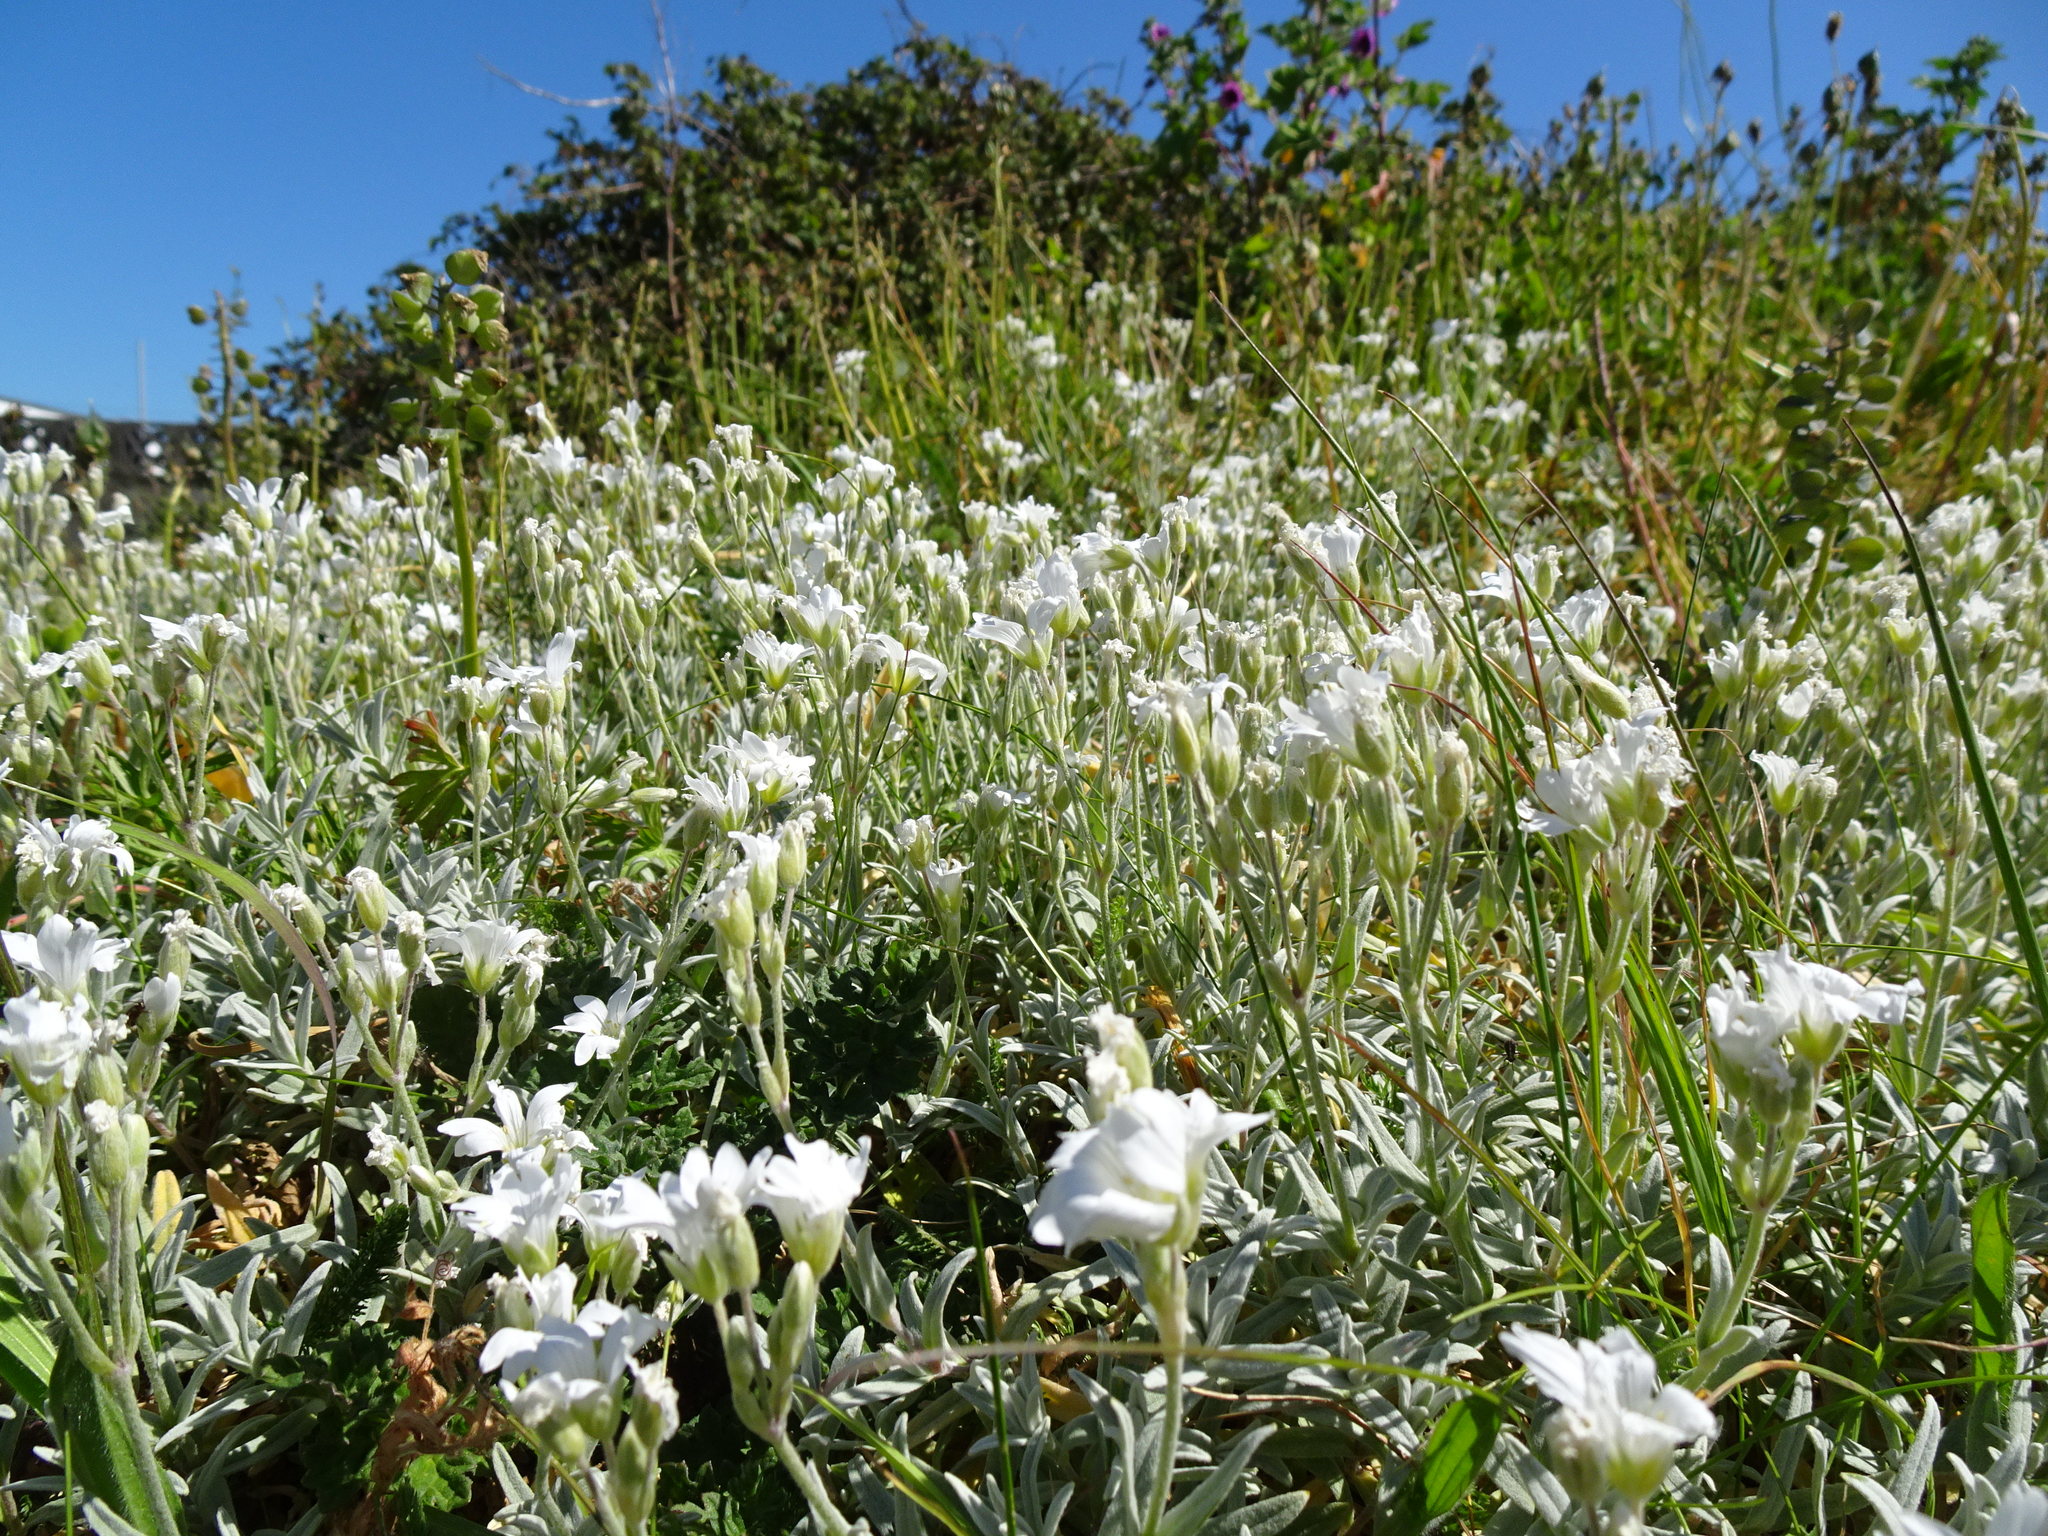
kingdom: Plantae
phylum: Tracheophyta
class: Magnoliopsida
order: Caryophyllales
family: Caryophyllaceae
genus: Cerastium
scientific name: Cerastium tomentosum
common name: Snow-in-summer
